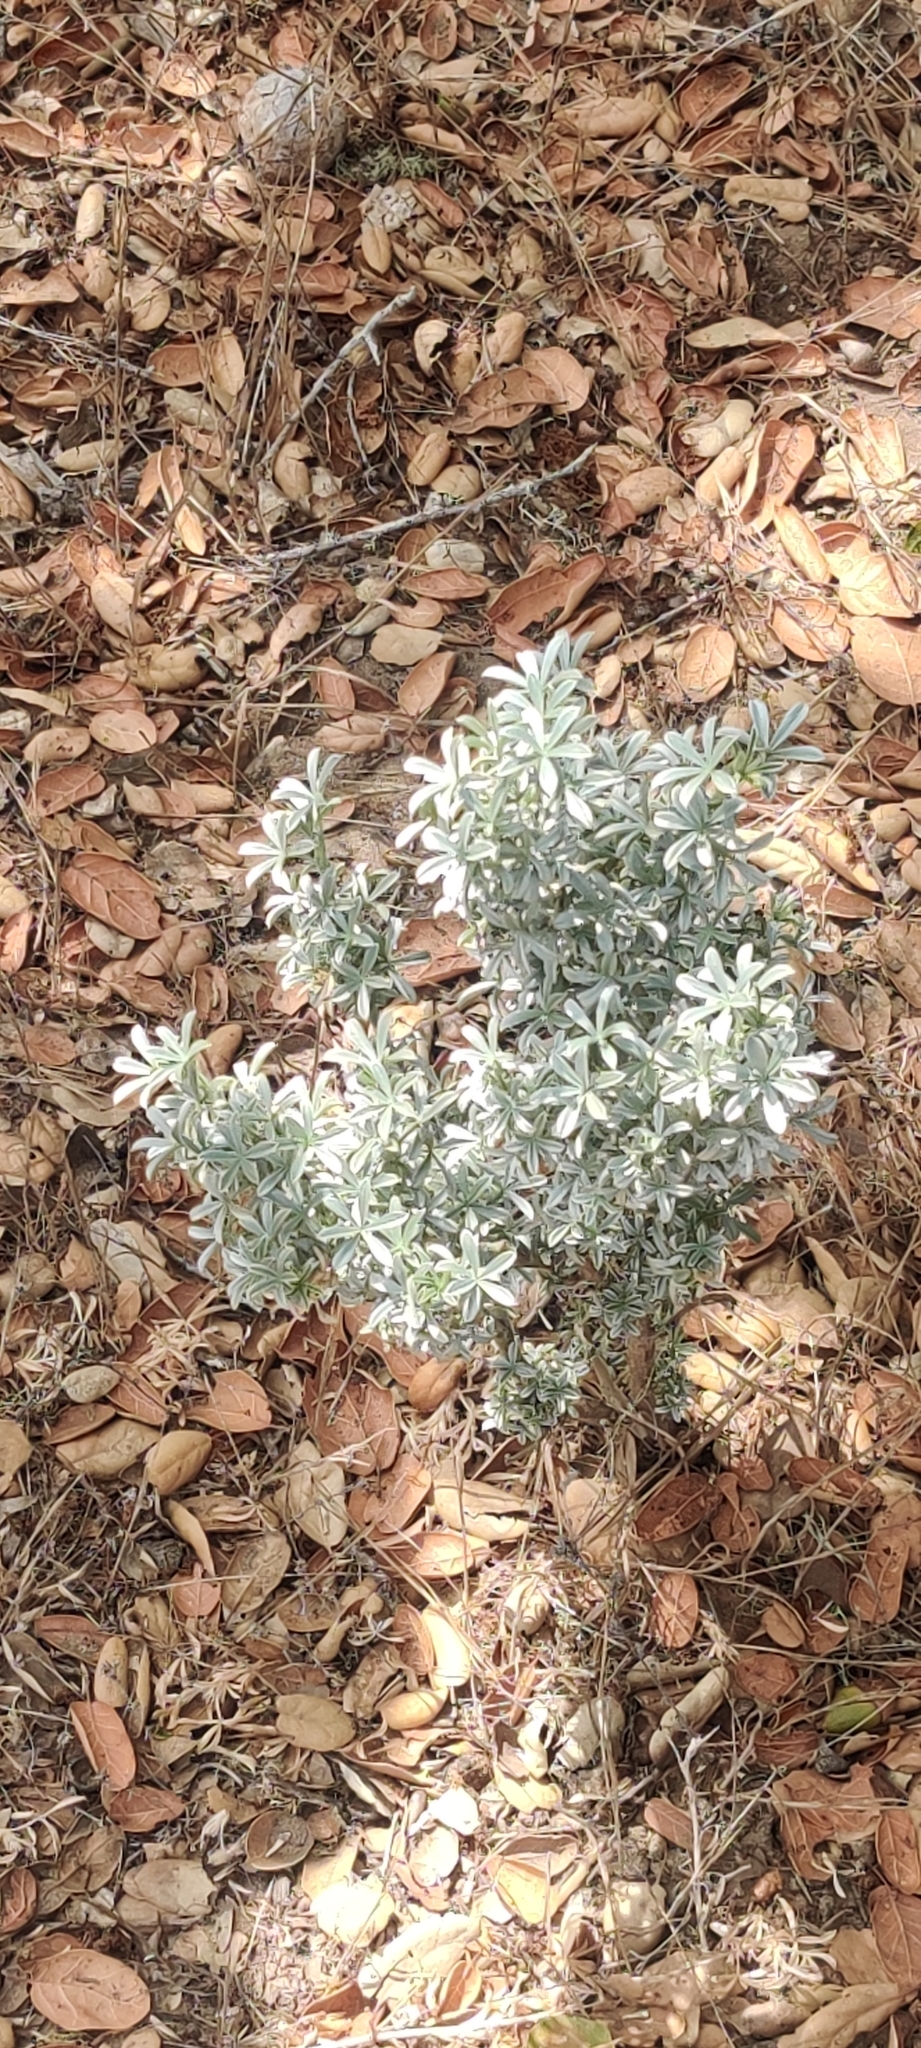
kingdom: Plantae
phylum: Tracheophyta
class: Magnoliopsida
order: Fabales
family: Fabaceae
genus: Lupinus
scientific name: Lupinus obtusilobus
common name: Blunt-lobe lupine
